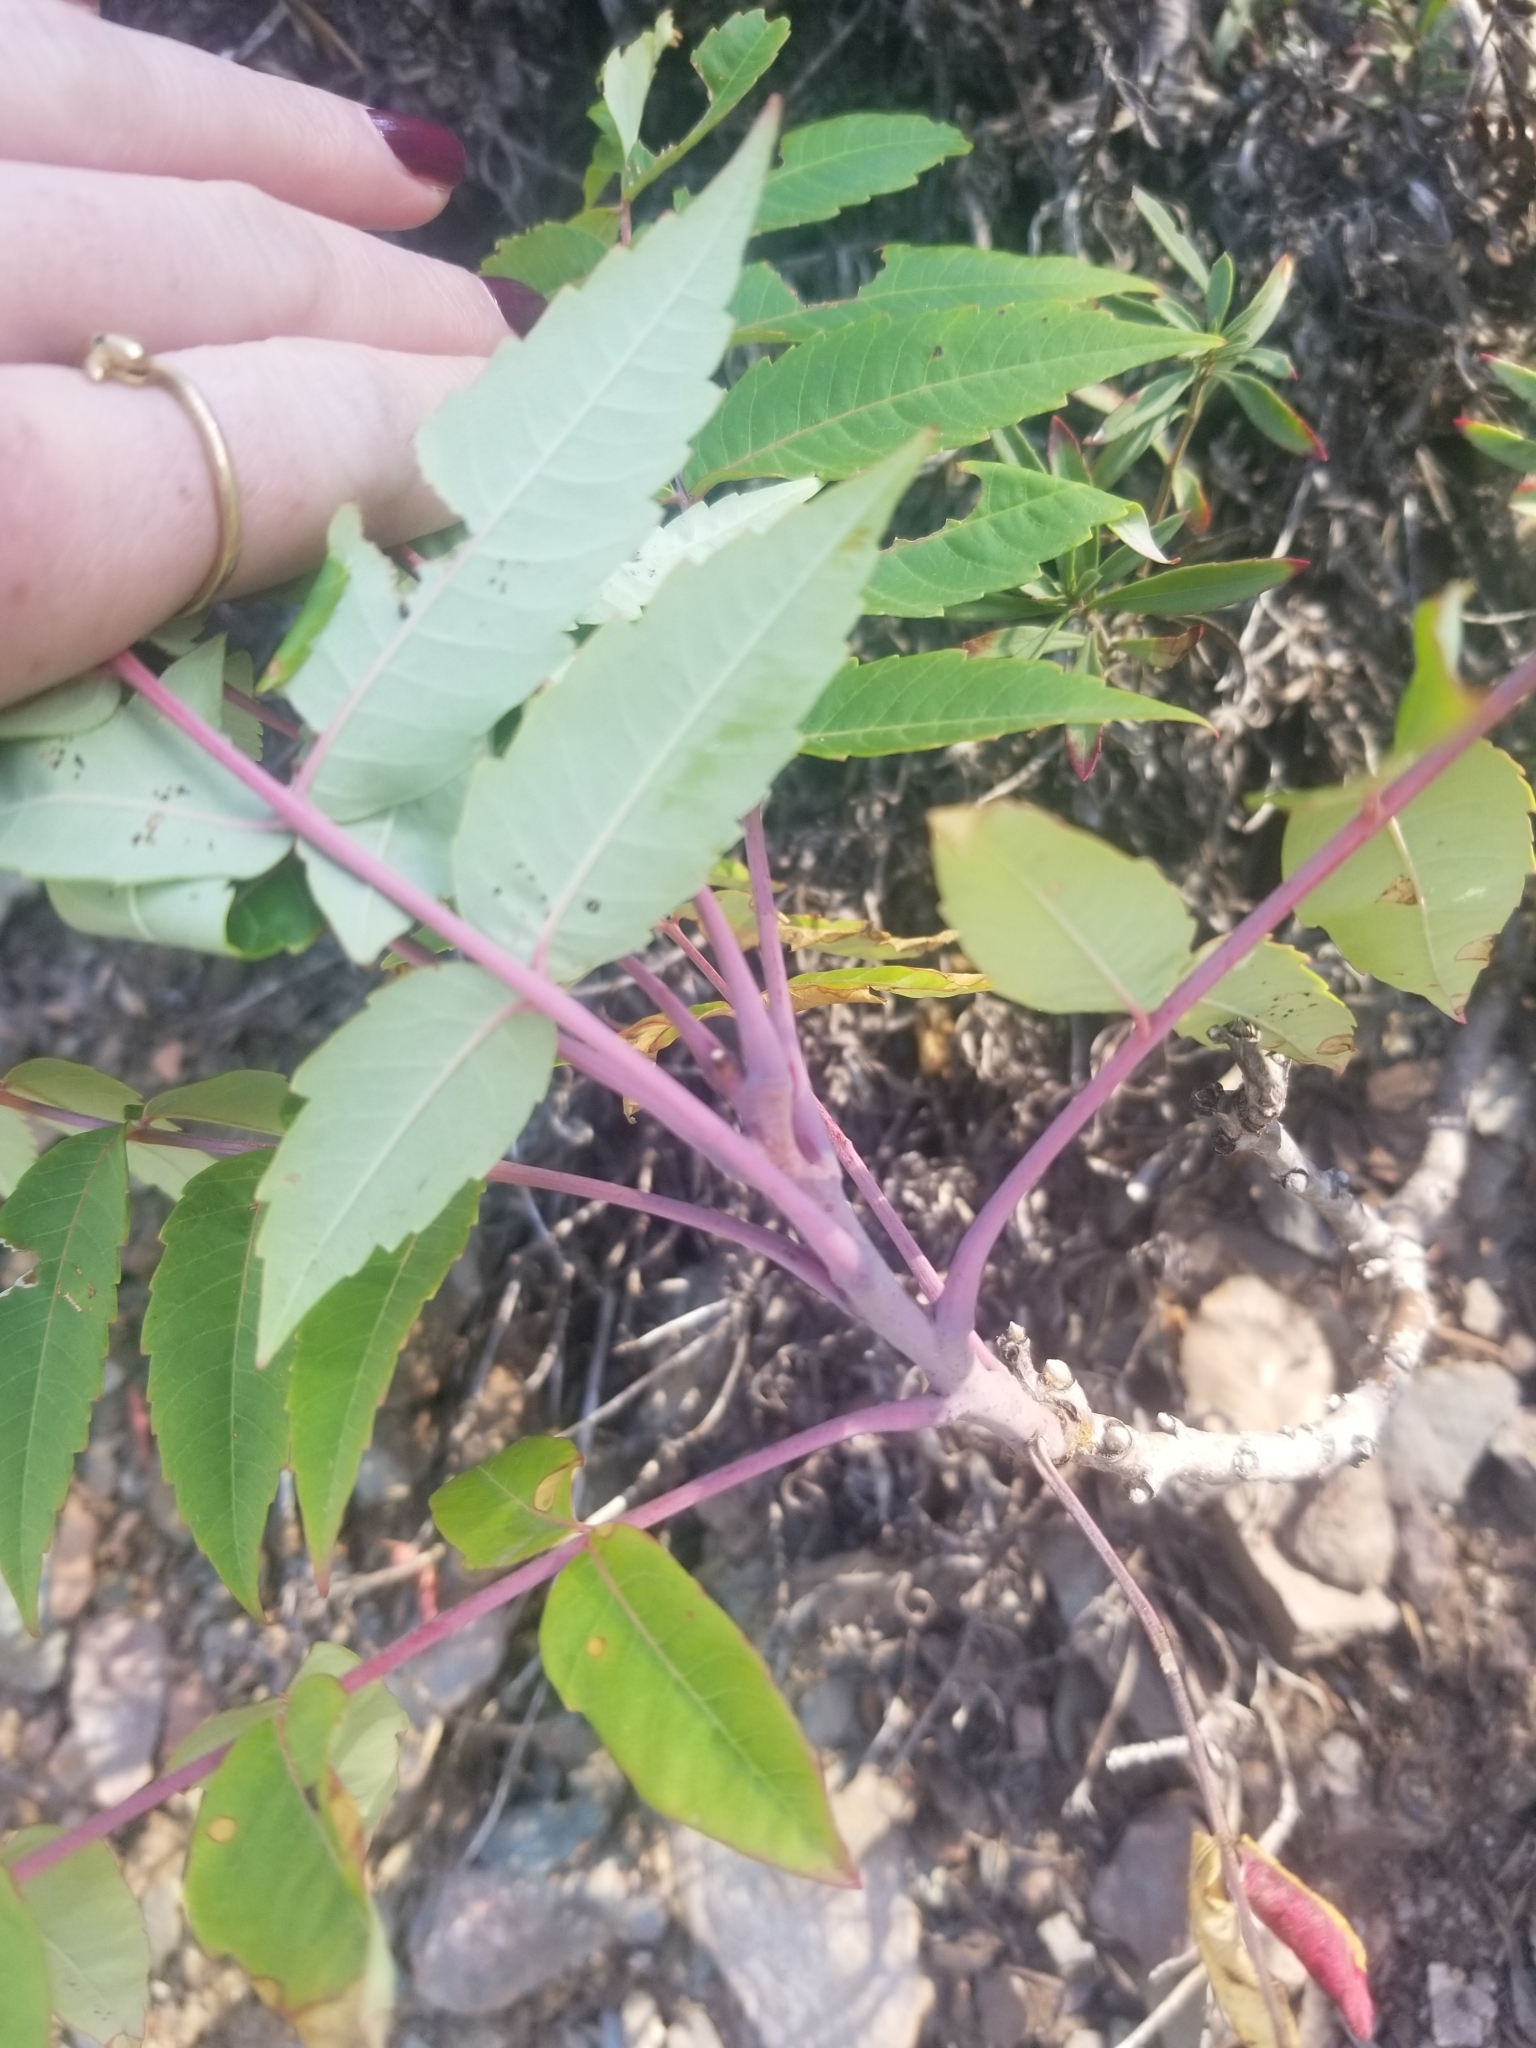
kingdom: Plantae
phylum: Tracheophyta
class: Magnoliopsida
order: Sapindales
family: Anacardiaceae
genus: Rhus
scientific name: Rhus glabra
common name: Scarlet sumac
